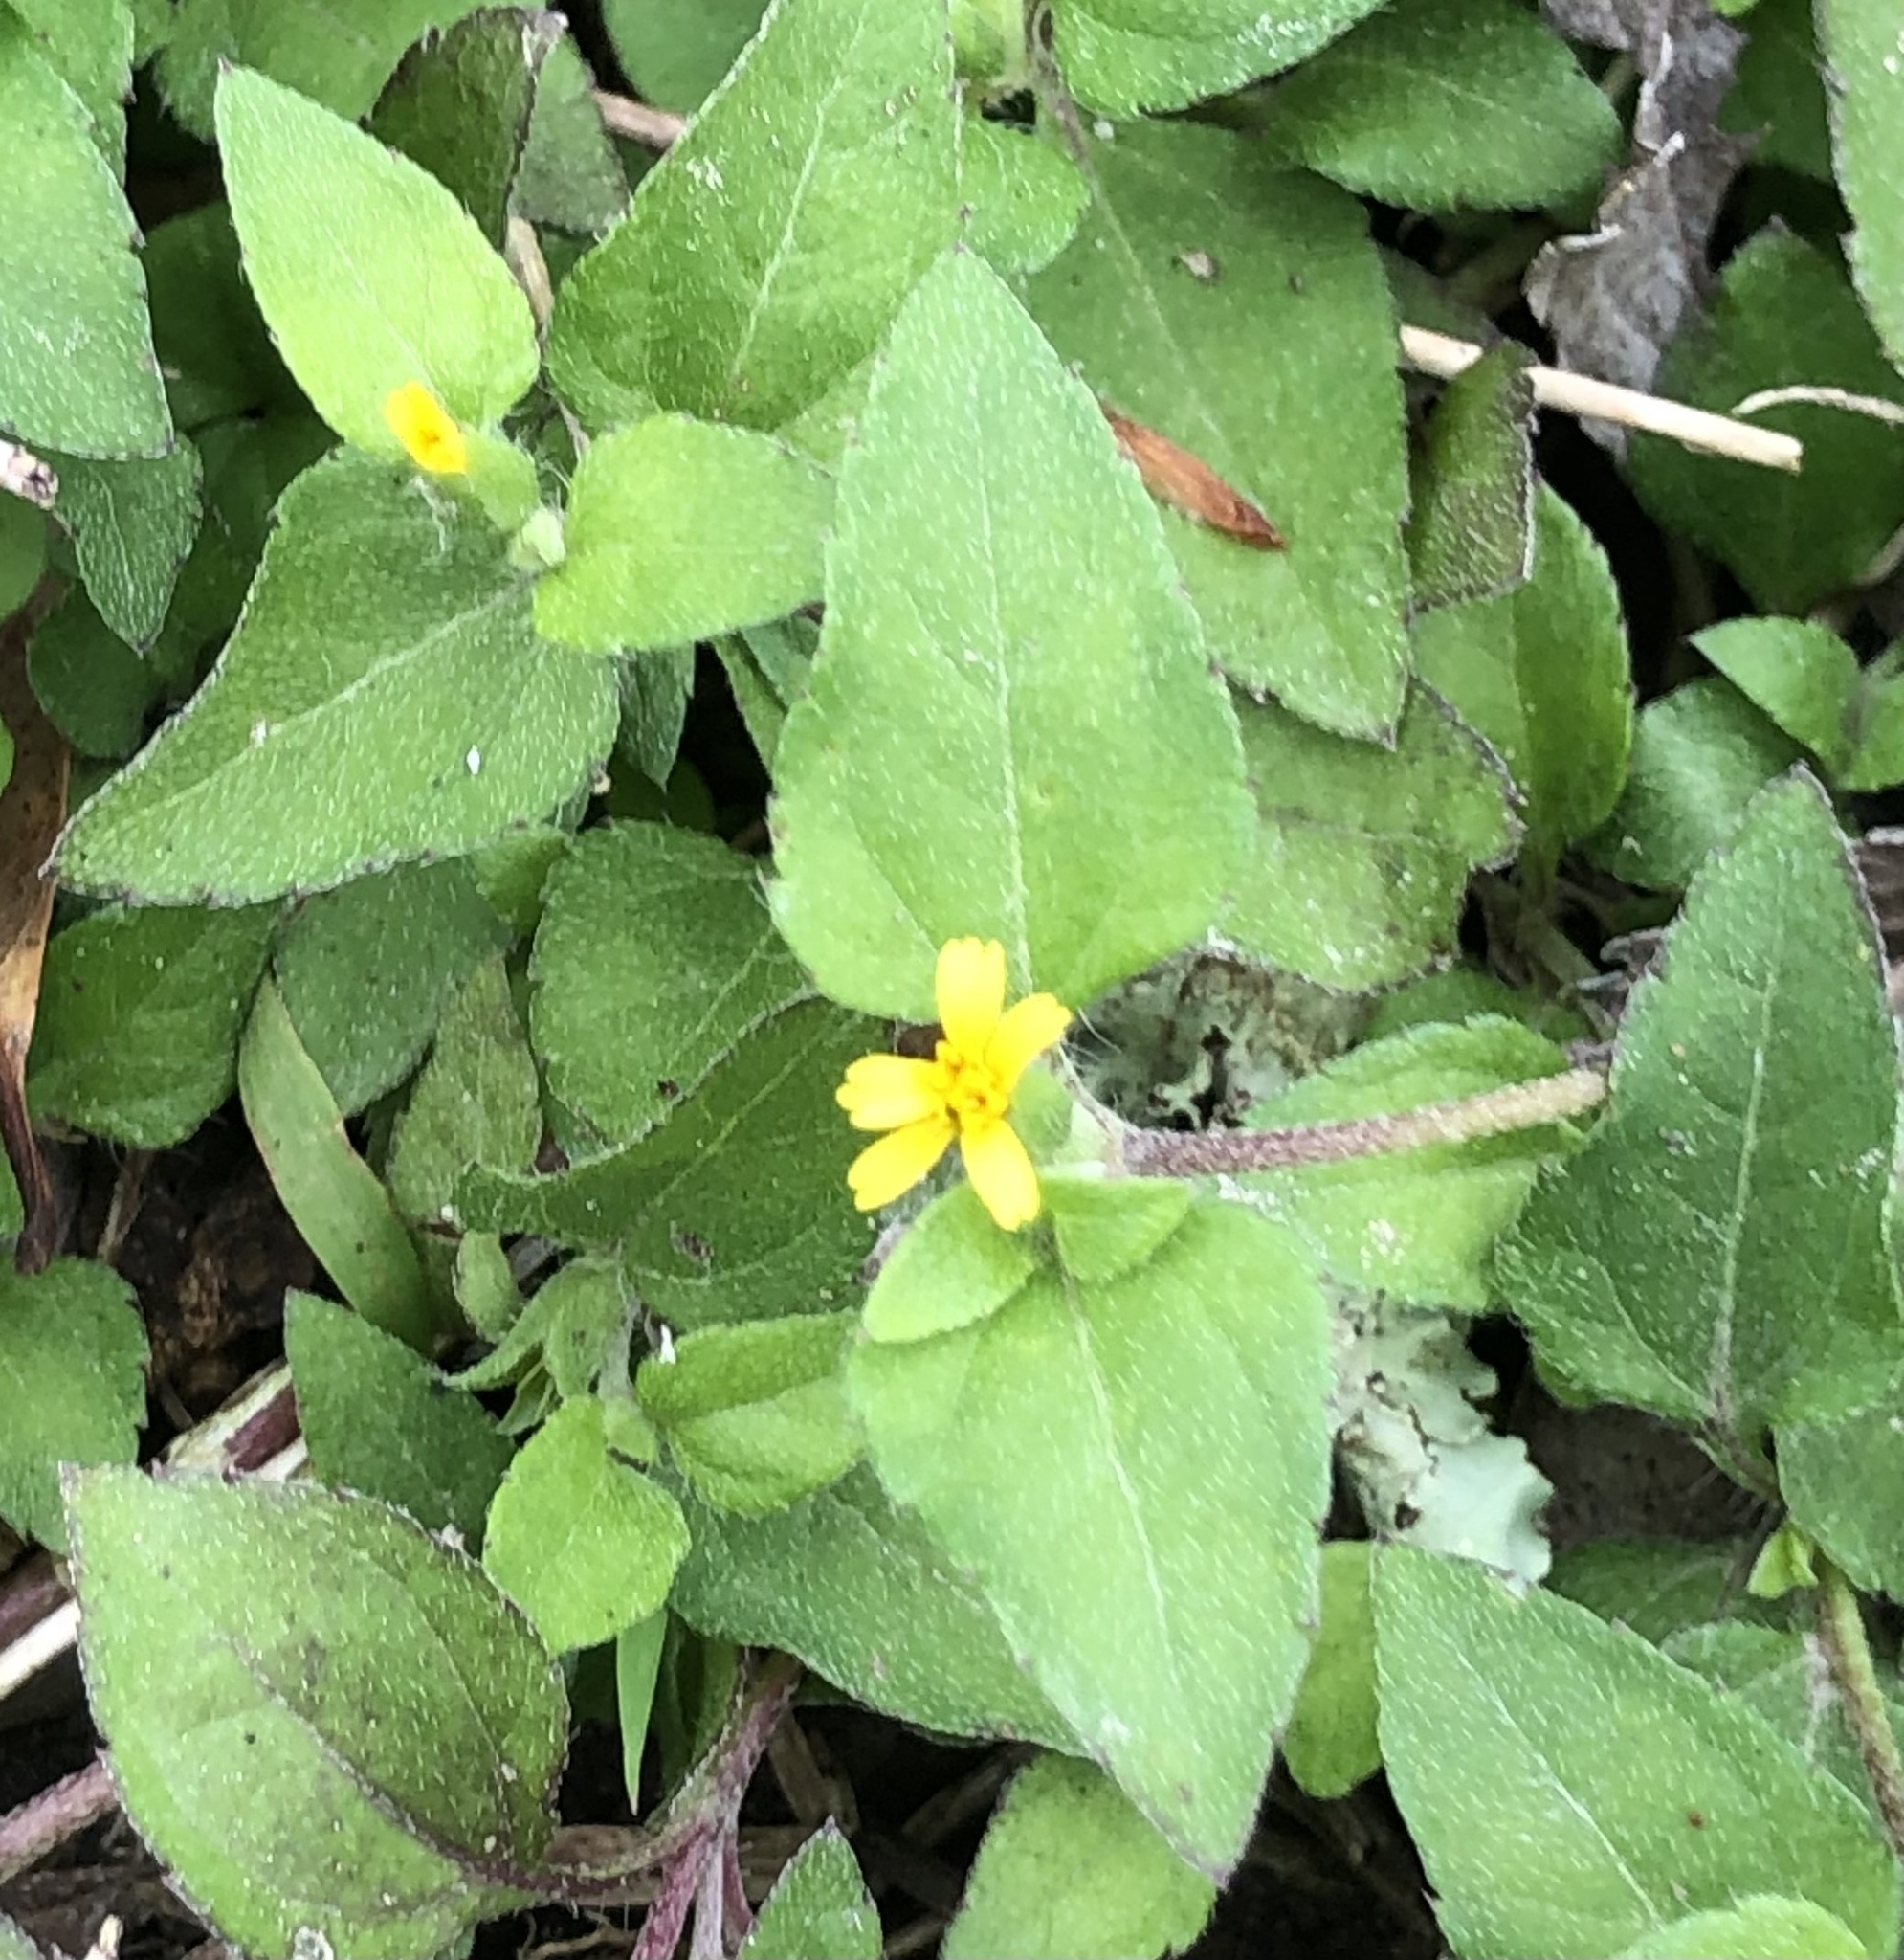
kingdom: Plantae
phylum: Tracheophyta
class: Magnoliopsida
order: Asterales
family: Asteraceae
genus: Calyptocarpus
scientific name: Calyptocarpus vialis
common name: Straggler daisy
